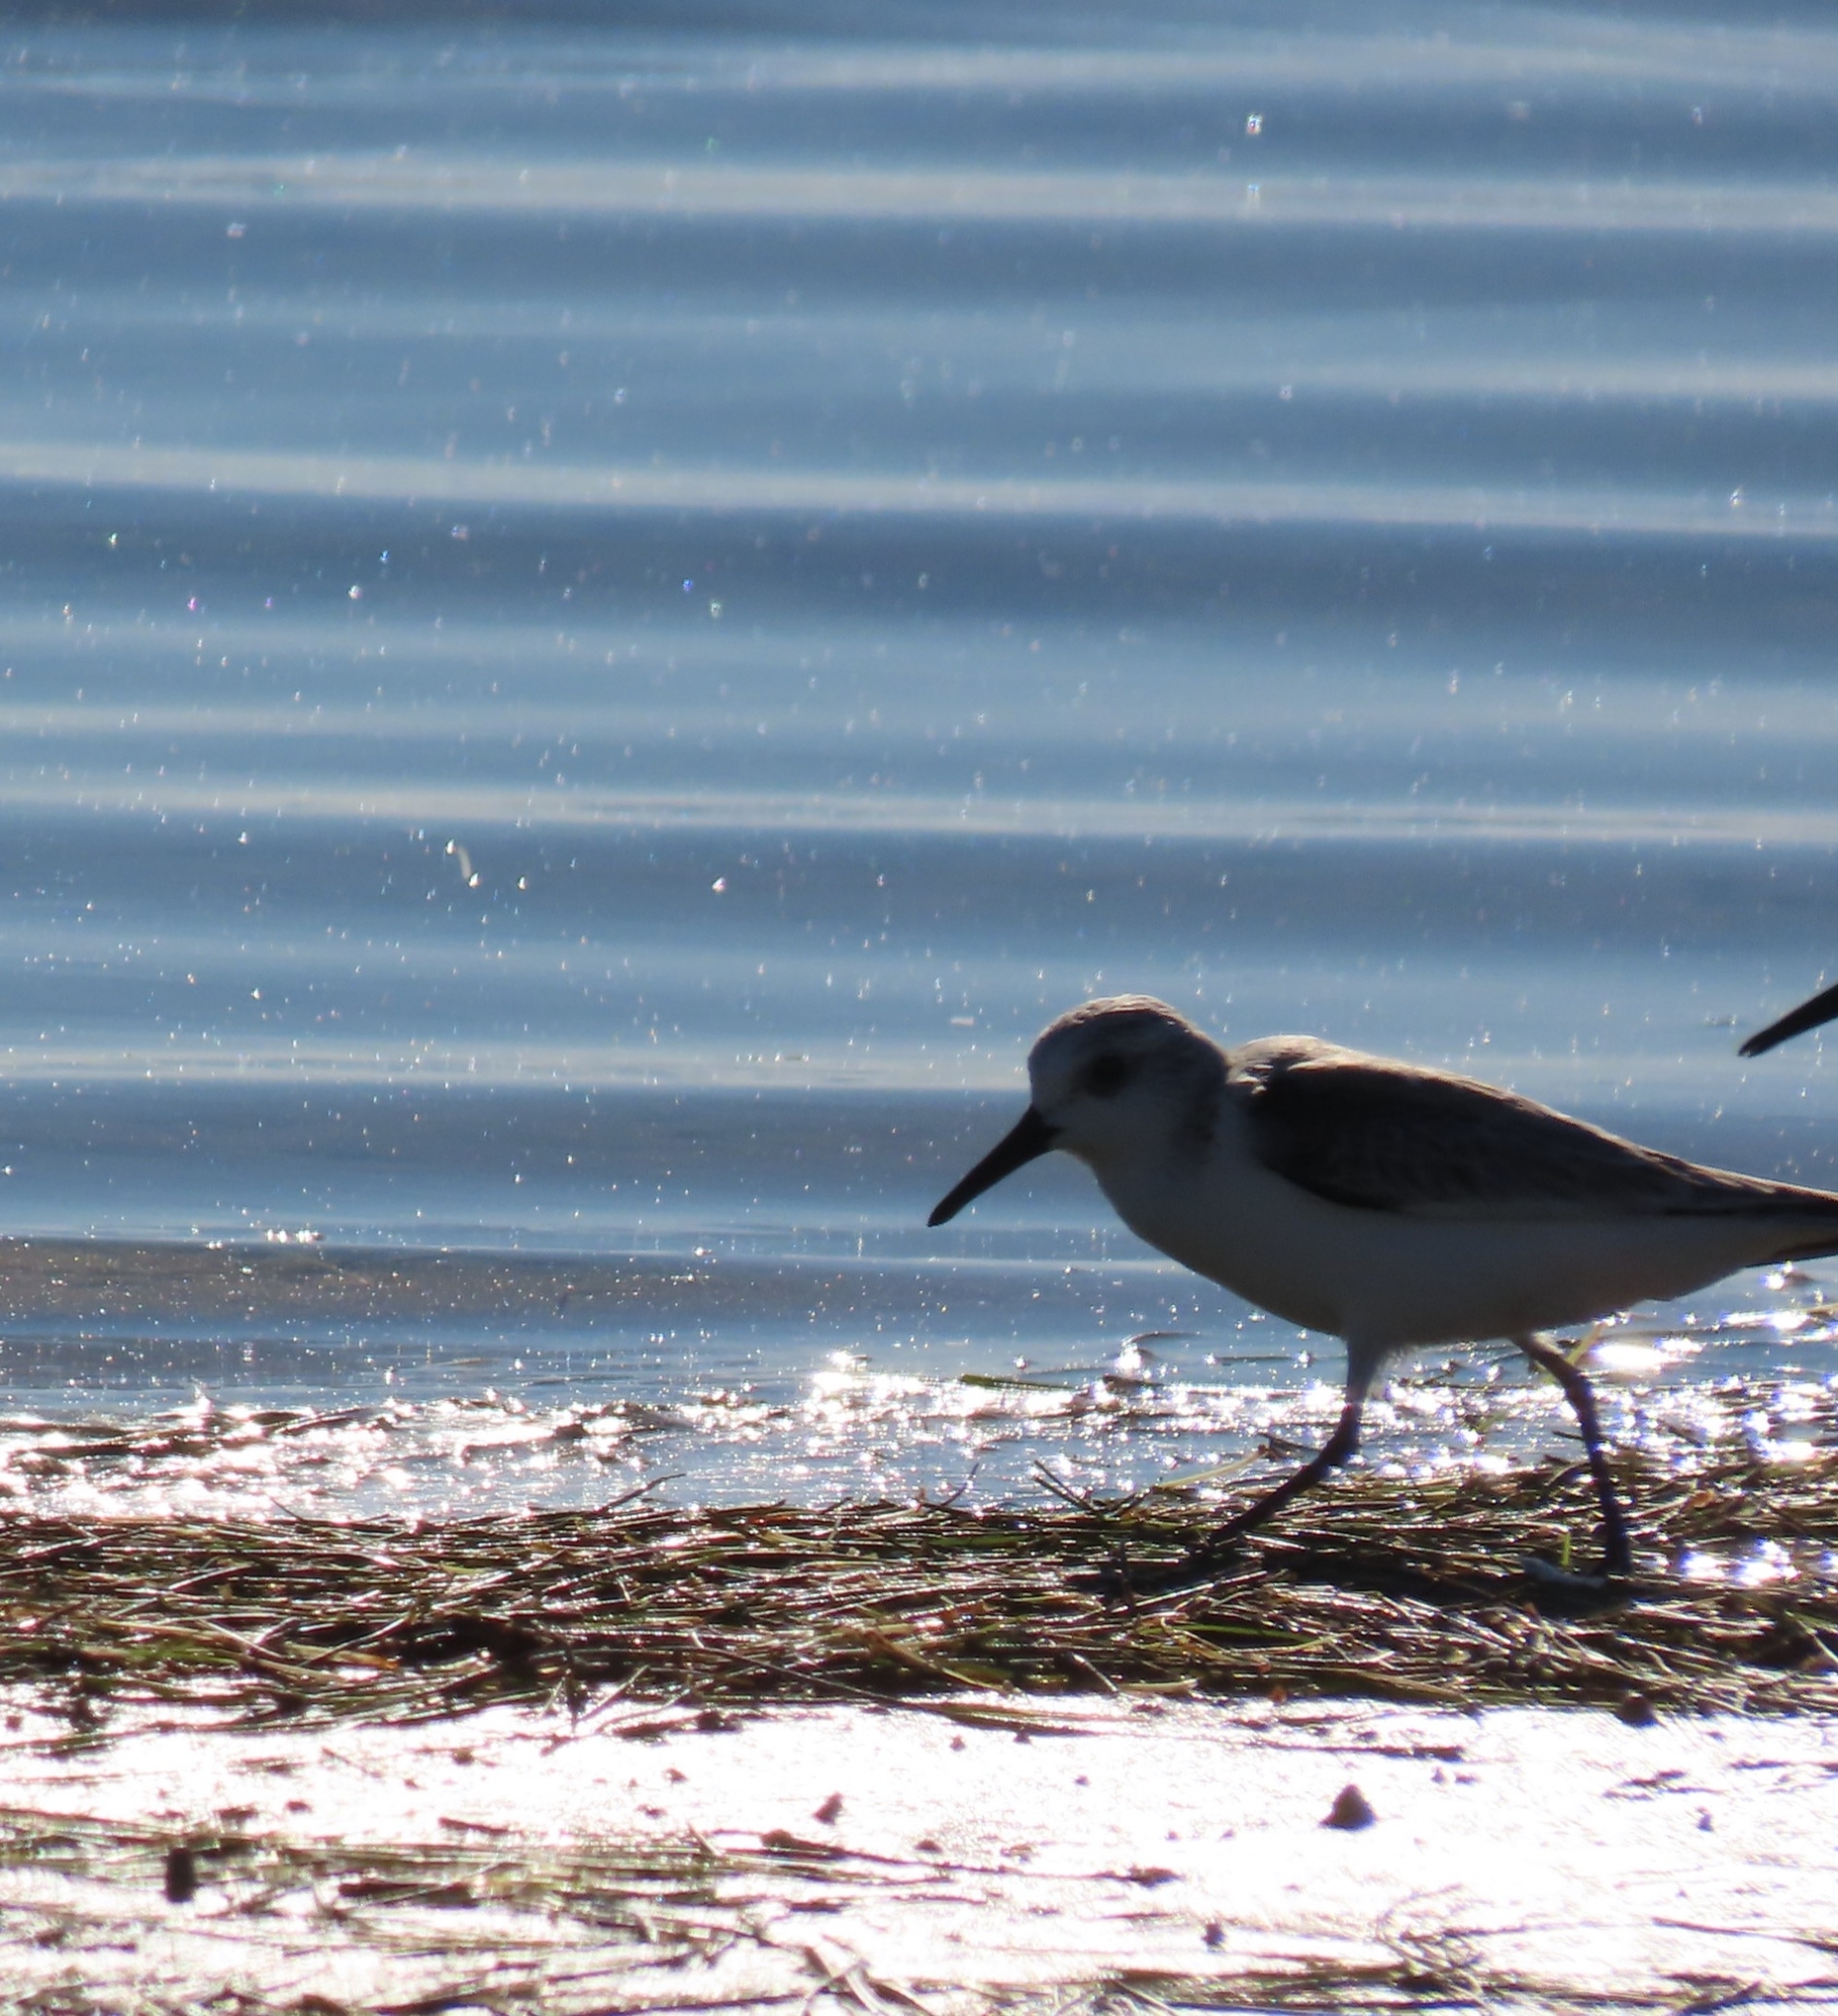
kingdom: Animalia
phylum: Chordata
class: Aves
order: Charadriiformes
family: Scolopacidae
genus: Calidris
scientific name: Calidris alba
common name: Sanderling
